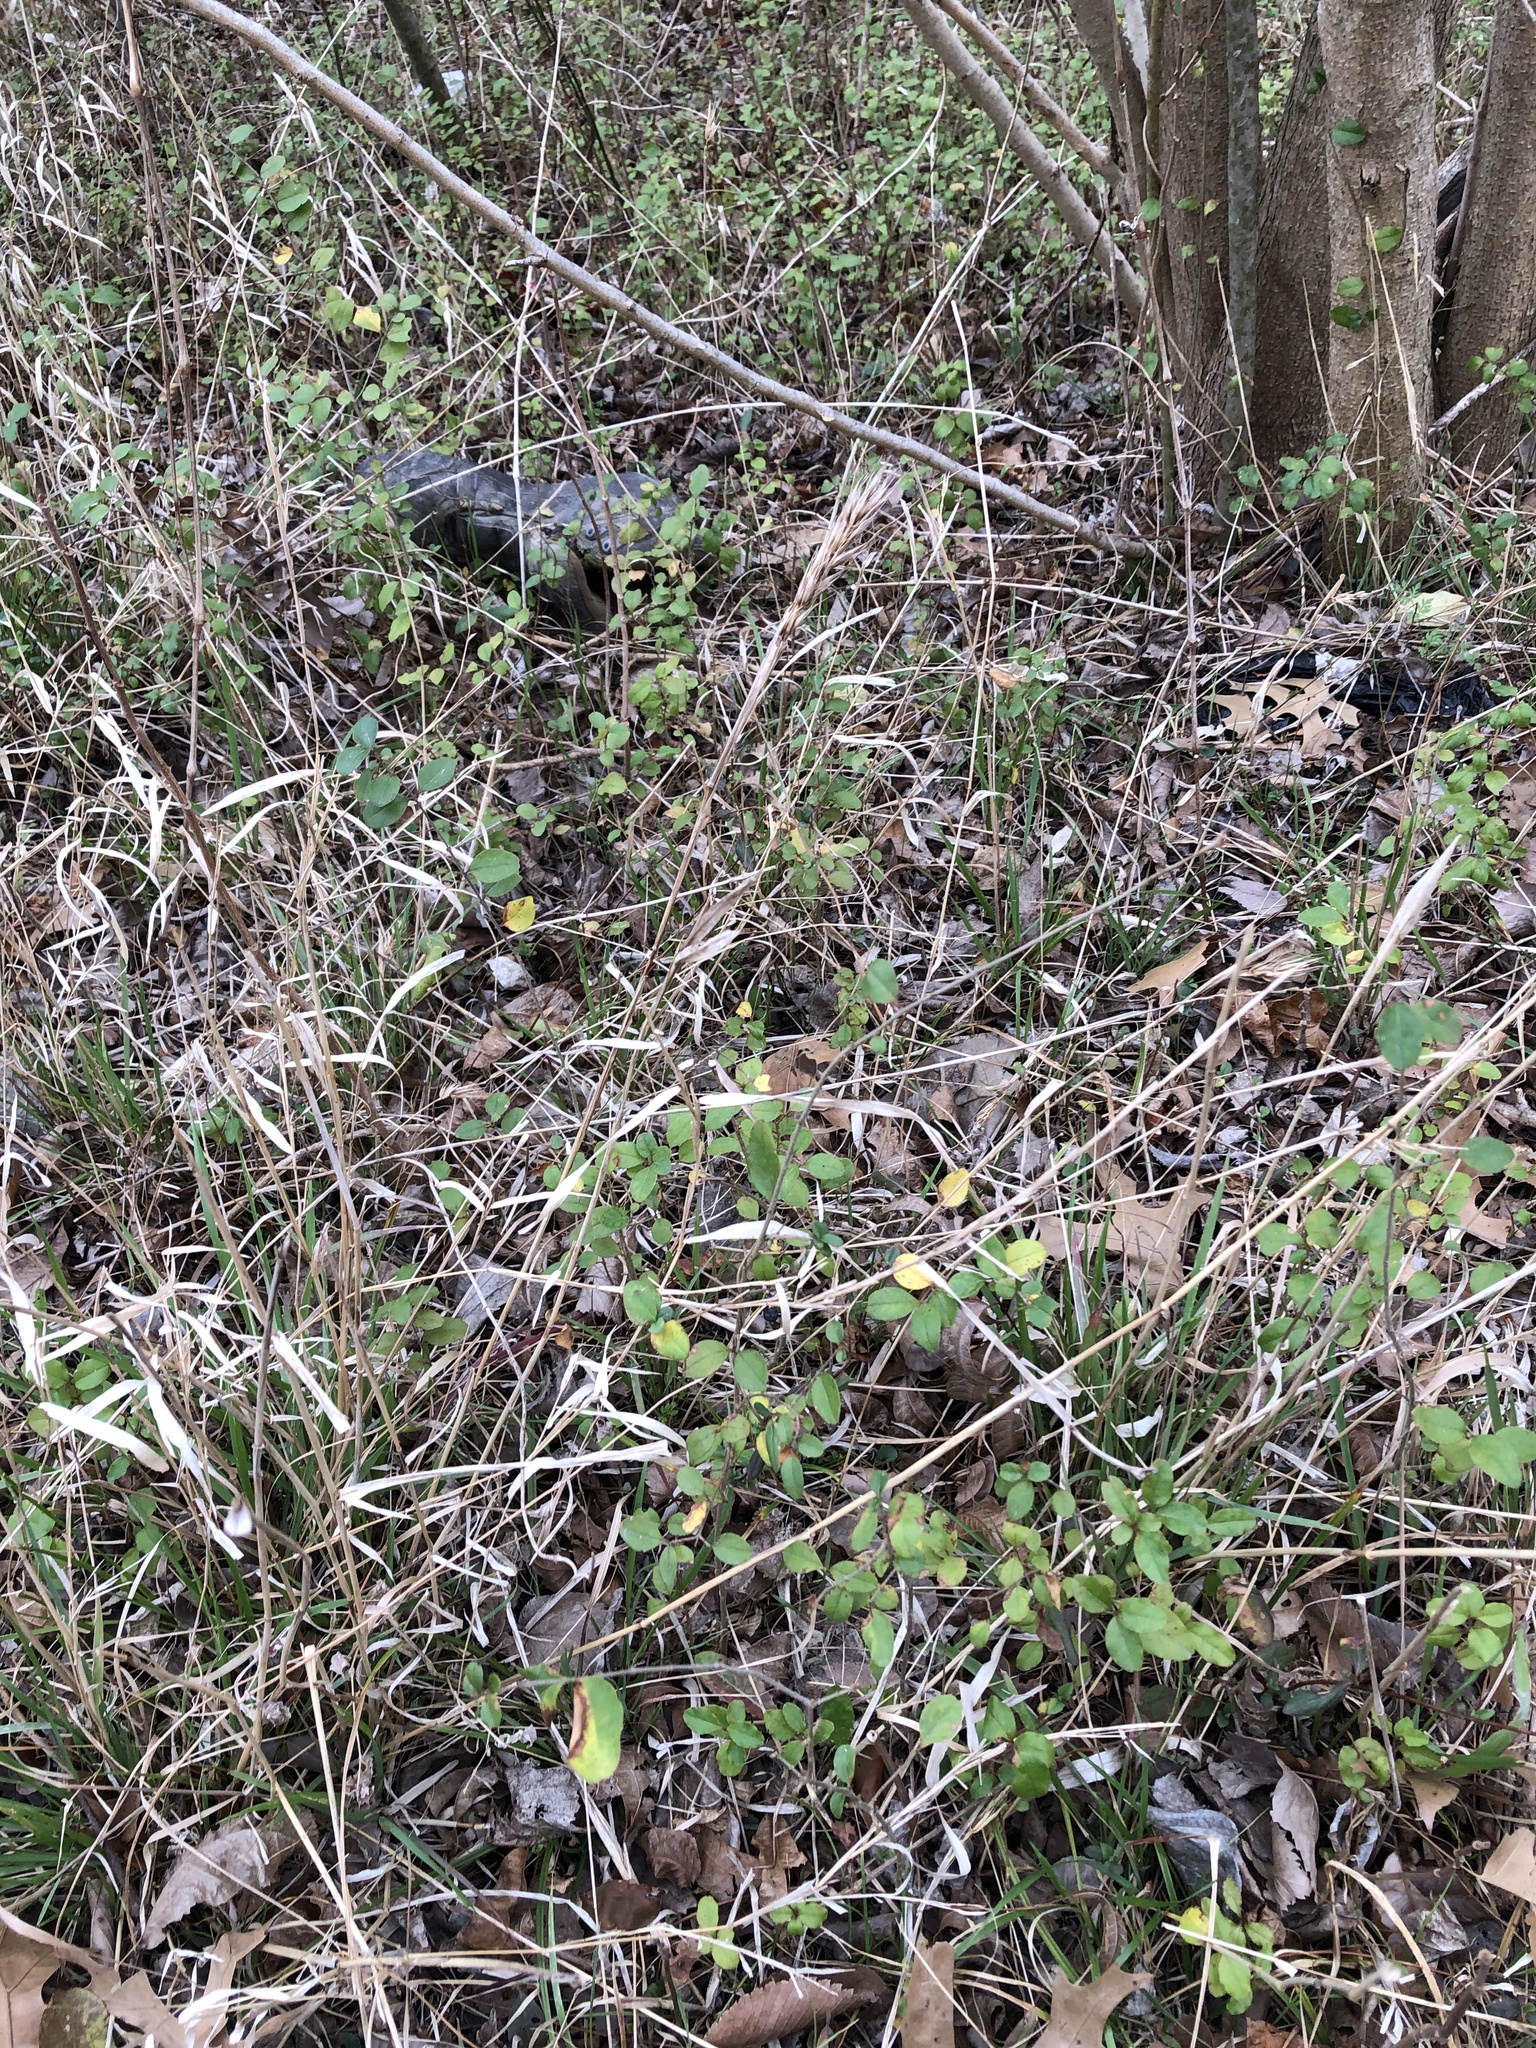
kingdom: Plantae
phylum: Tracheophyta
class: Liliopsida
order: Poales
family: Poaceae
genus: Elymus
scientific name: Elymus virginicus
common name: Common eastern wildrye
